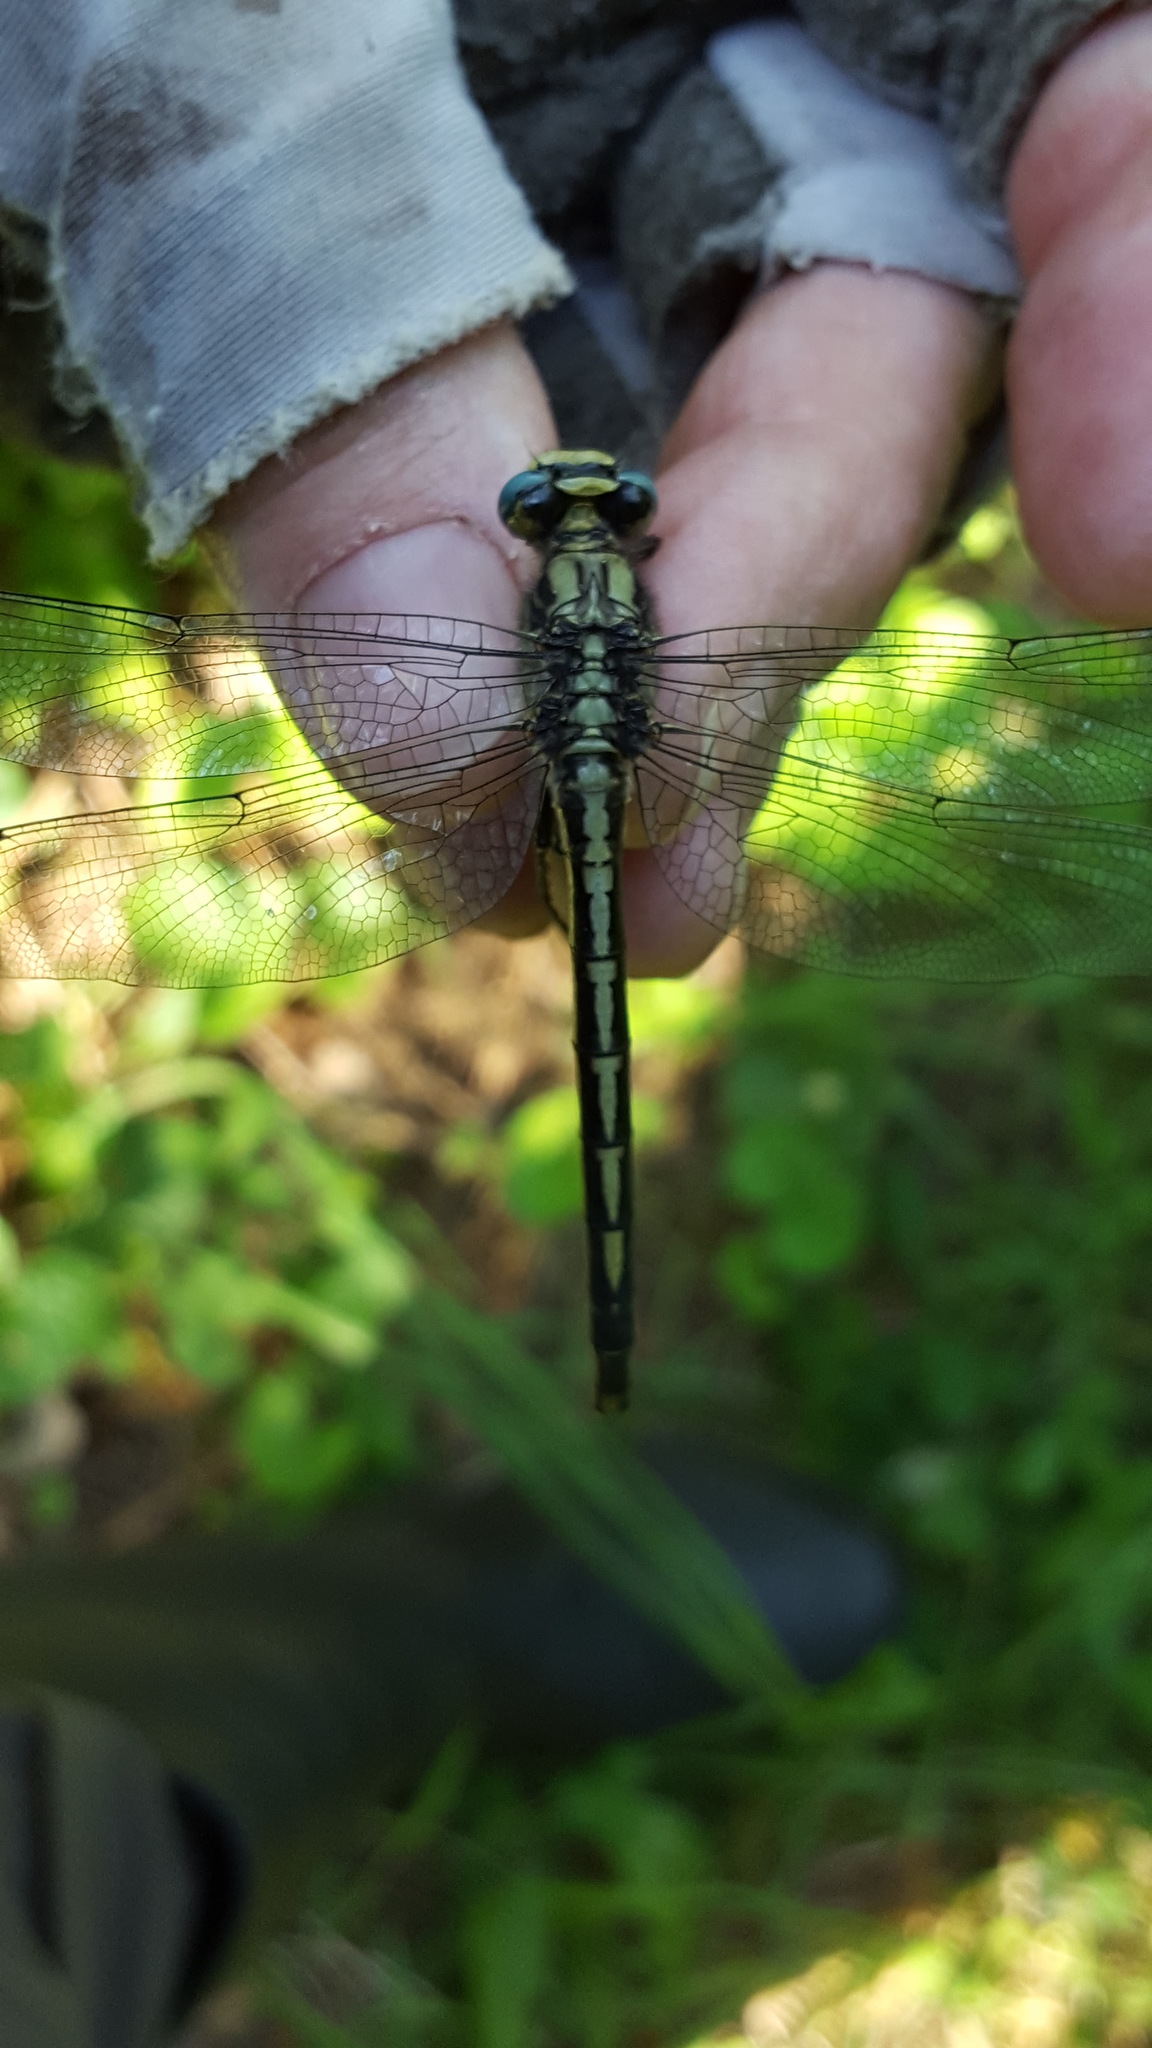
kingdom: Animalia
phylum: Arthropoda
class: Insecta
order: Odonata
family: Gomphidae
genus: Arigomphus
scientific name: Arigomphus cornutus
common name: Horned clubtail
